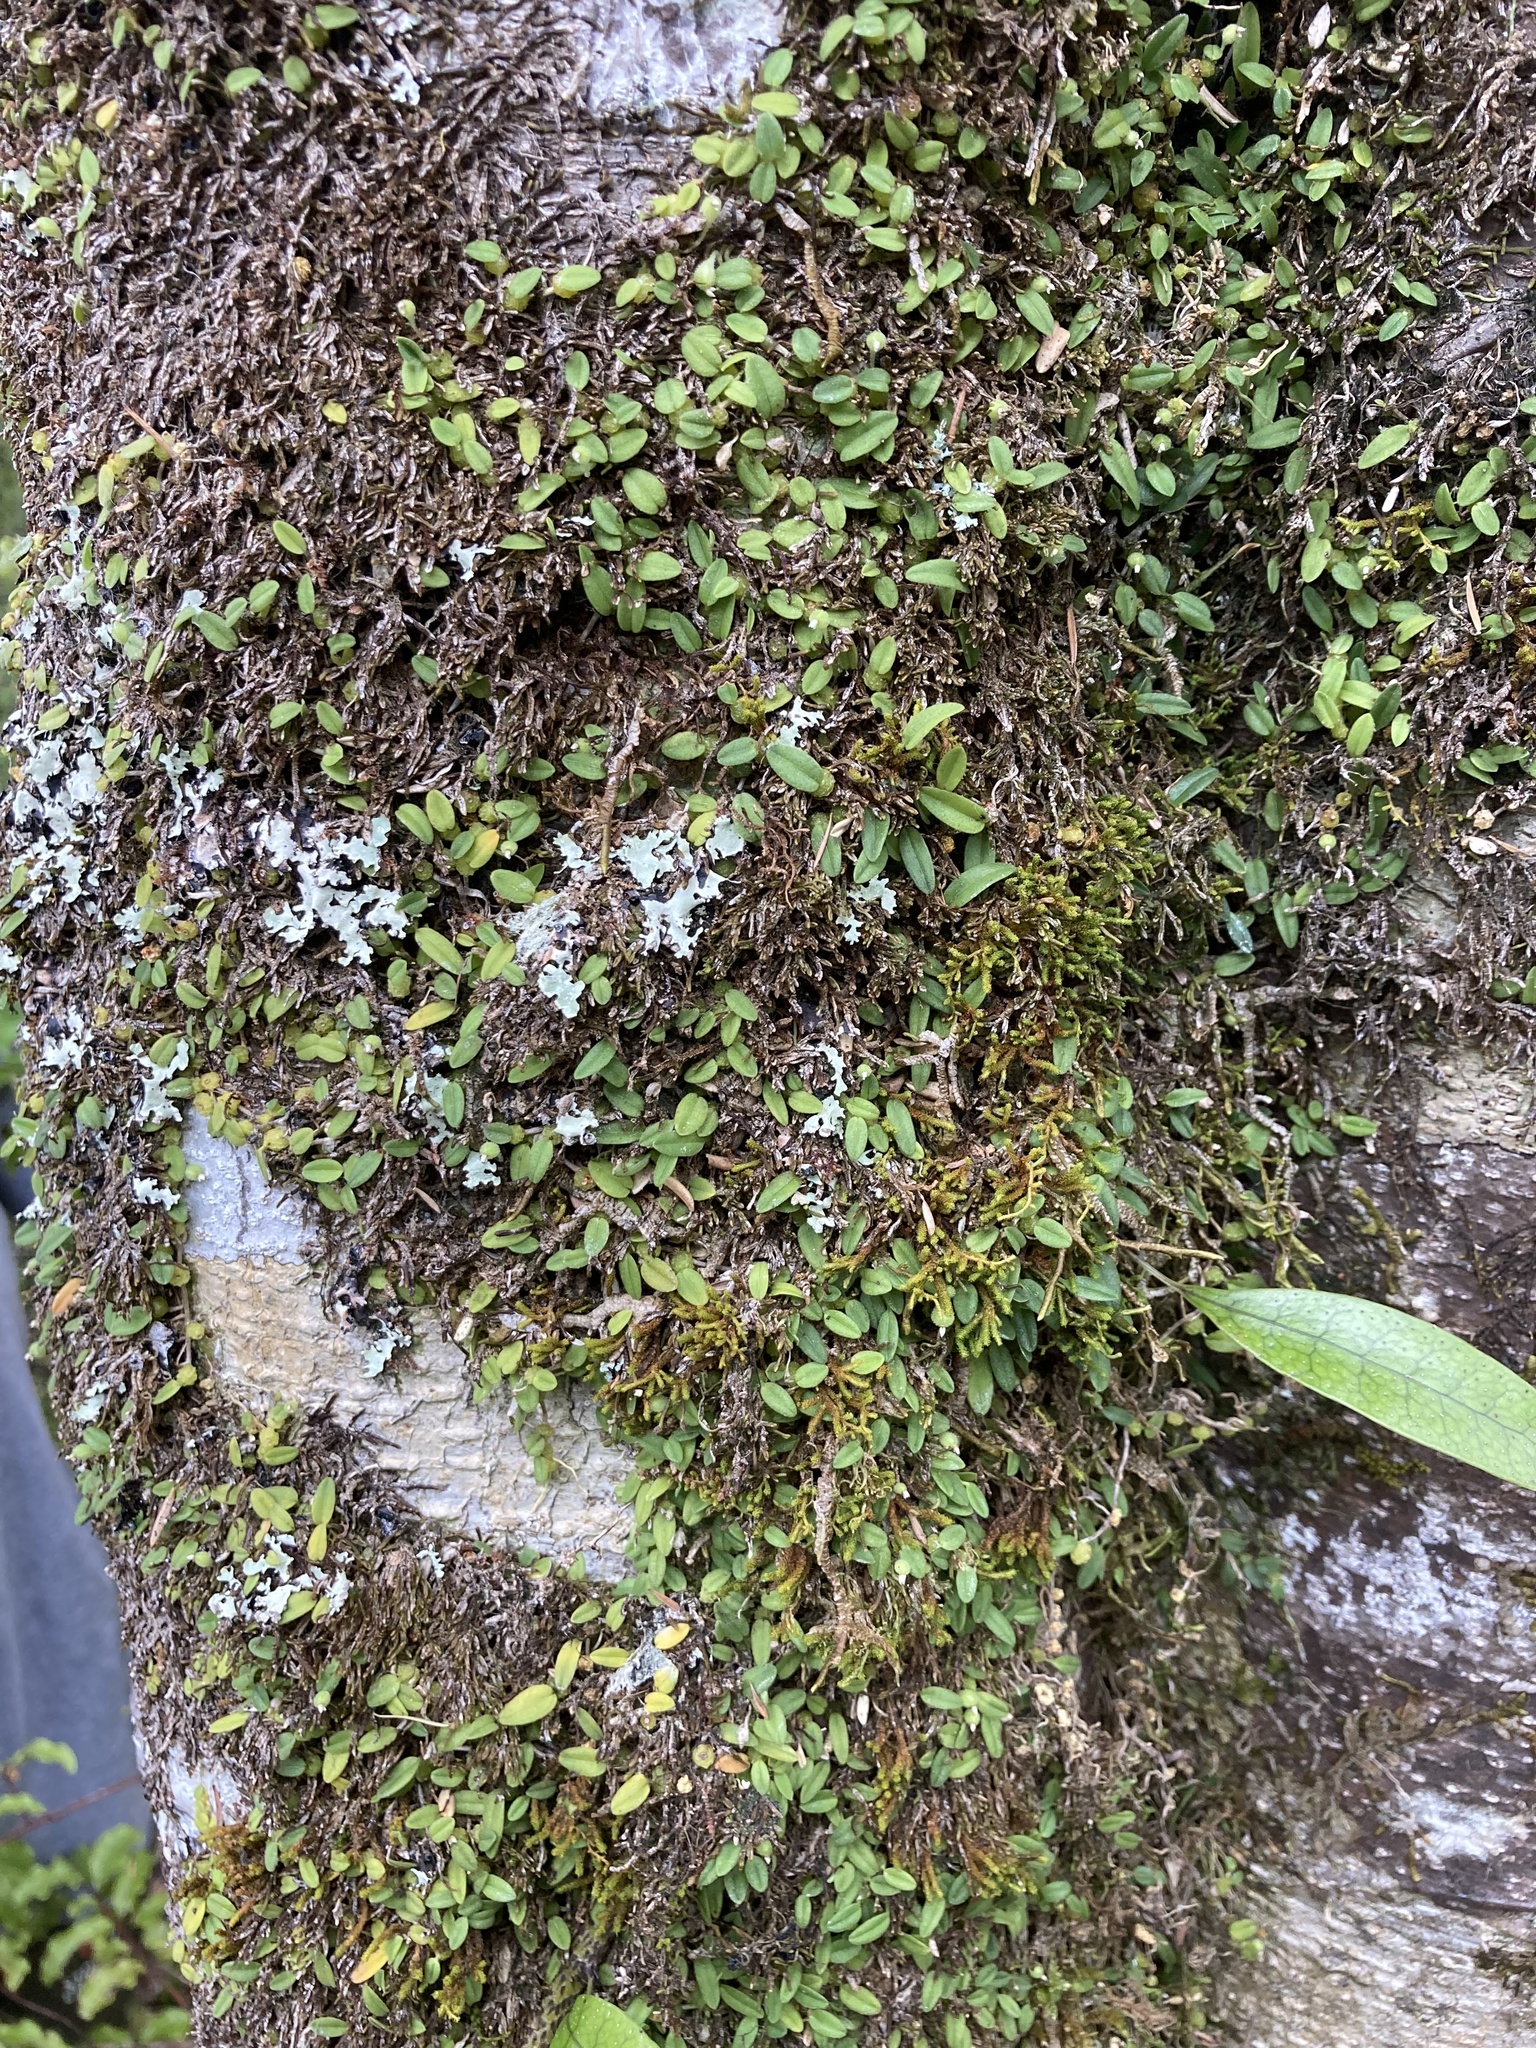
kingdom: Plantae
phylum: Tracheophyta
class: Liliopsida
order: Asparagales
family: Orchidaceae
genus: Bulbophyllum
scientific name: Bulbophyllum pygmaeum
